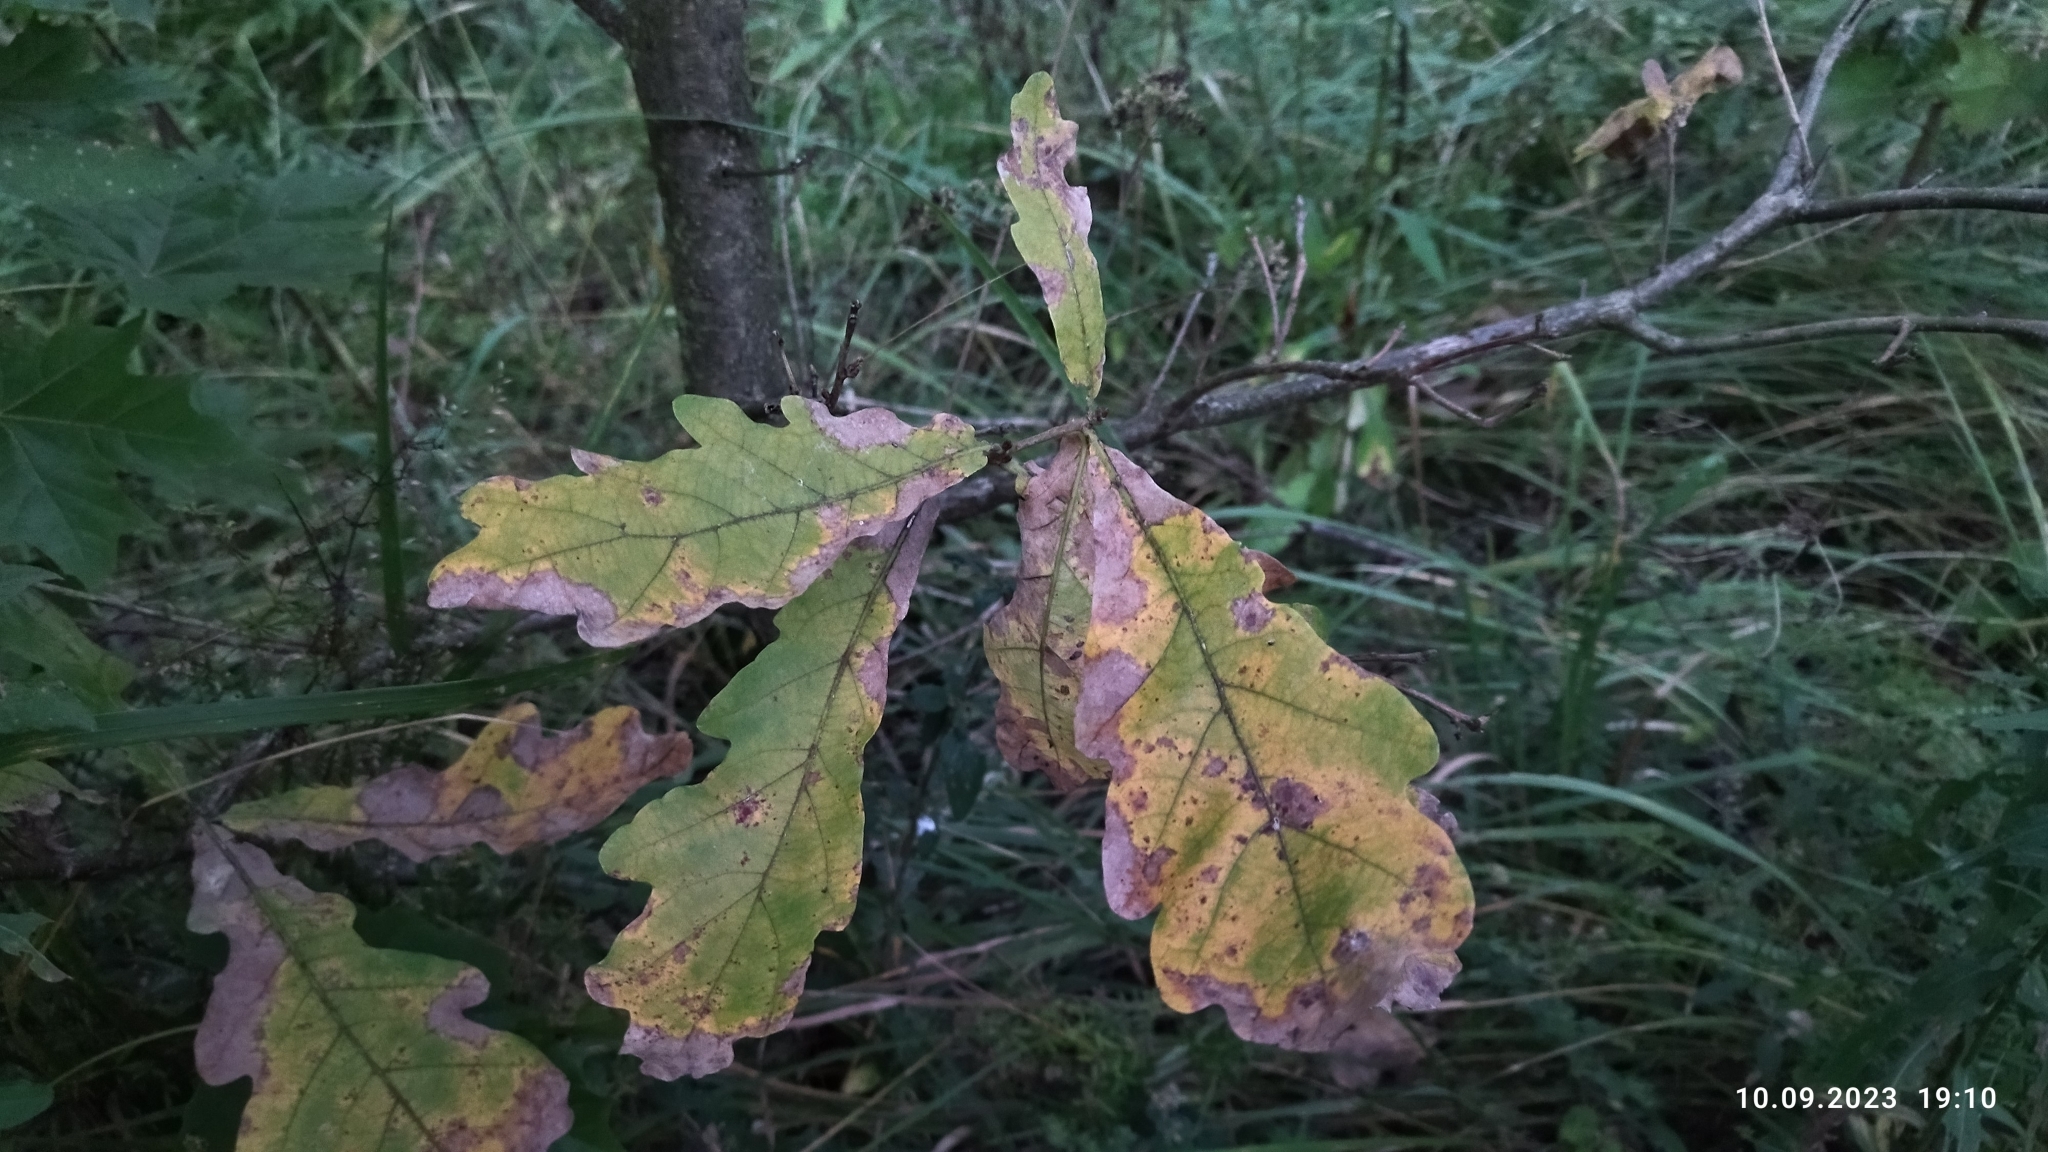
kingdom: Plantae
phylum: Tracheophyta
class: Magnoliopsida
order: Fagales
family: Fagaceae
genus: Quercus
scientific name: Quercus robur
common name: Pedunculate oak
